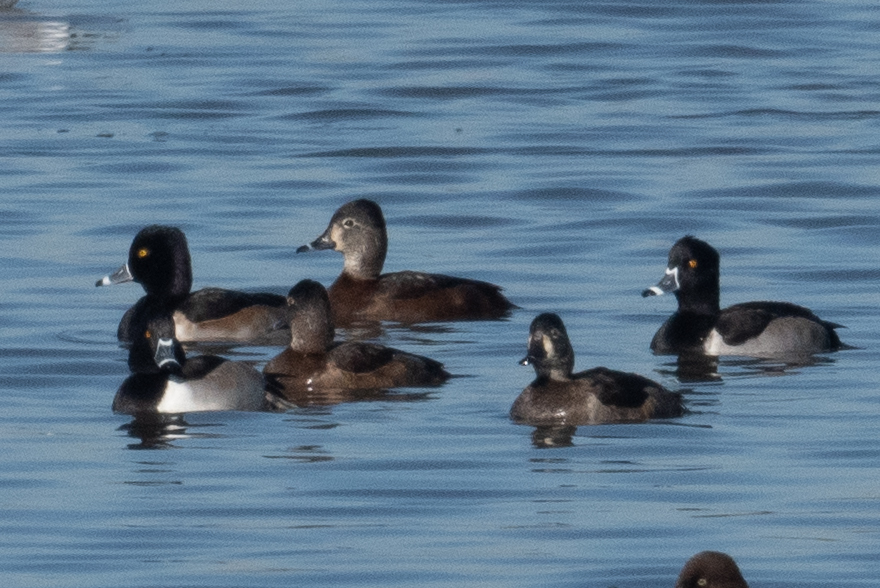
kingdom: Animalia
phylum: Chordata
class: Aves
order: Anseriformes
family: Anatidae
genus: Aythya
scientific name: Aythya collaris
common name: Ring-necked duck
